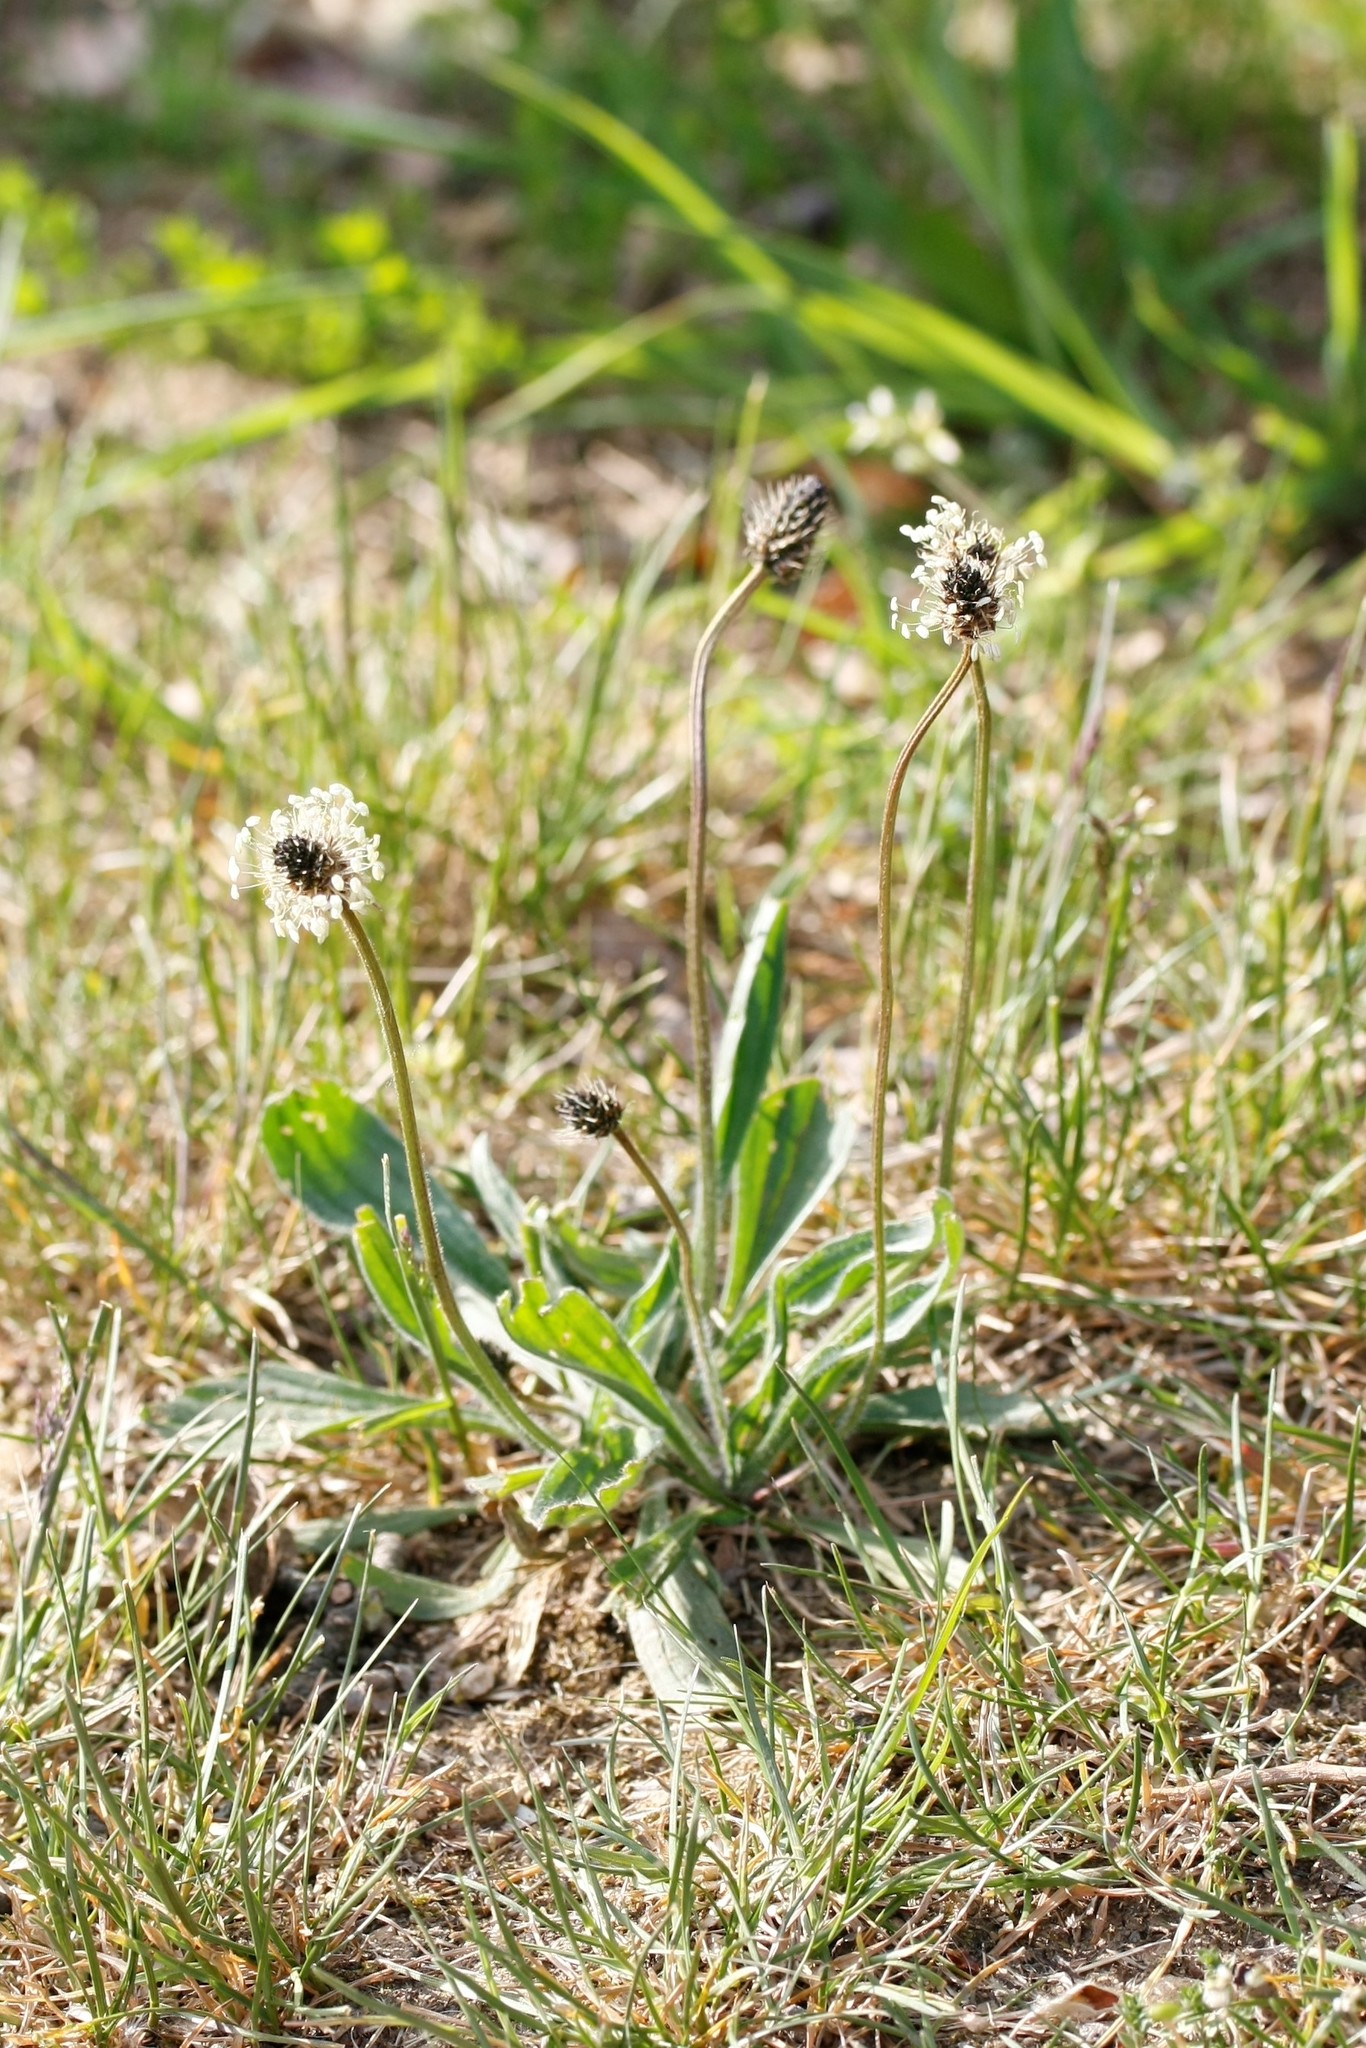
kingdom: Plantae
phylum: Tracheophyta
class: Magnoliopsida
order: Lamiales
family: Plantaginaceae
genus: Plantago
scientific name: Plantago lanceolata
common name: Ribwort plantain
